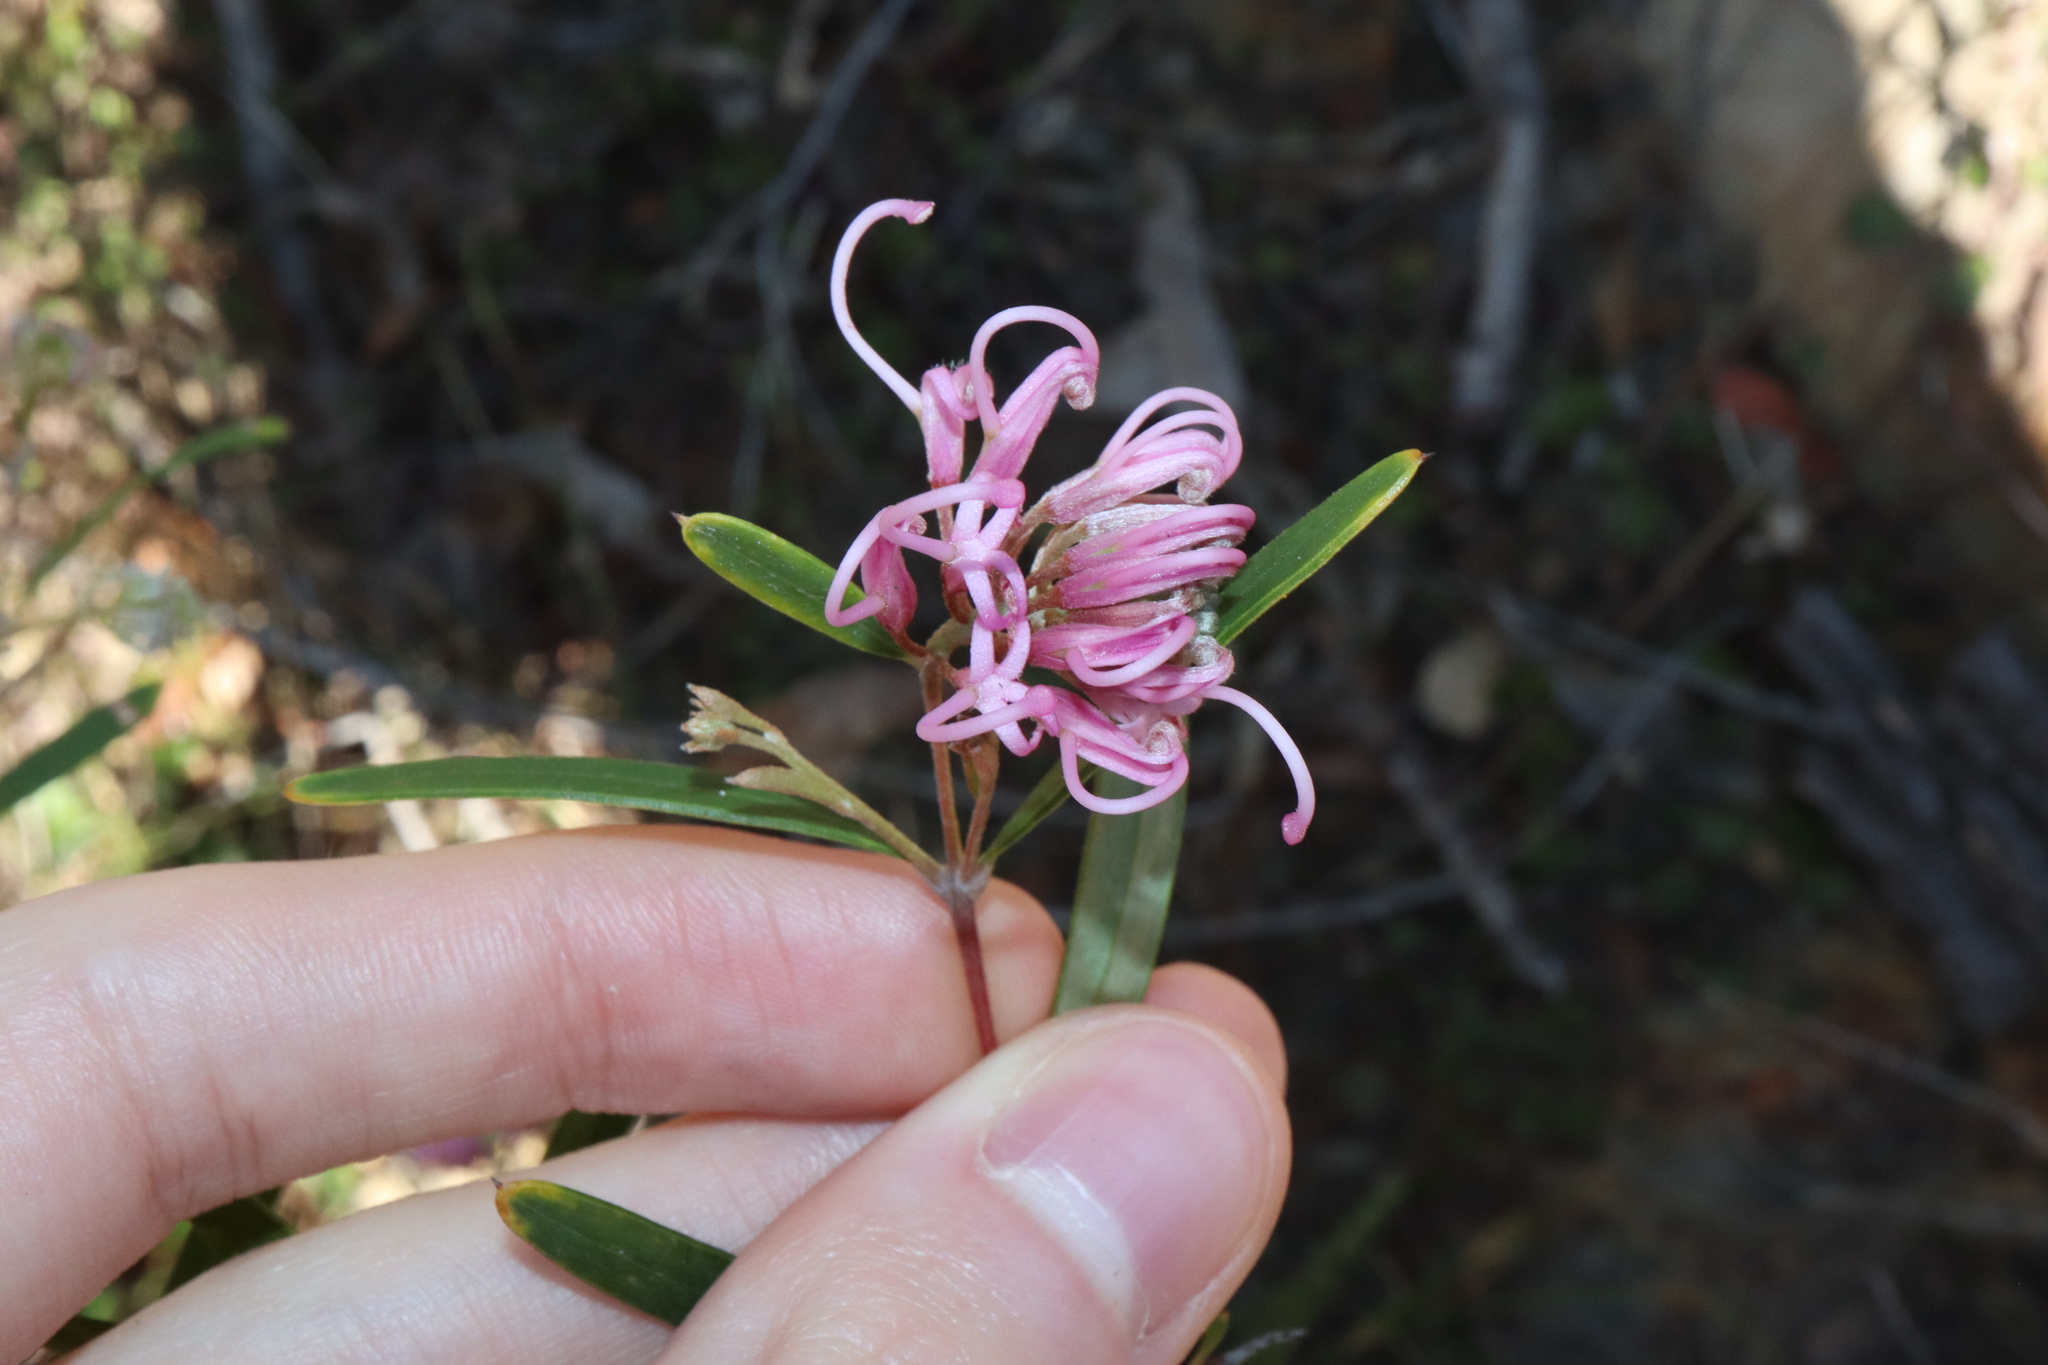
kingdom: Plantae
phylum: Tracheophyta
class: Magnoliopsida
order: Proteales
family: Proteaceae
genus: Grevillea
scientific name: Grevillea sericea
